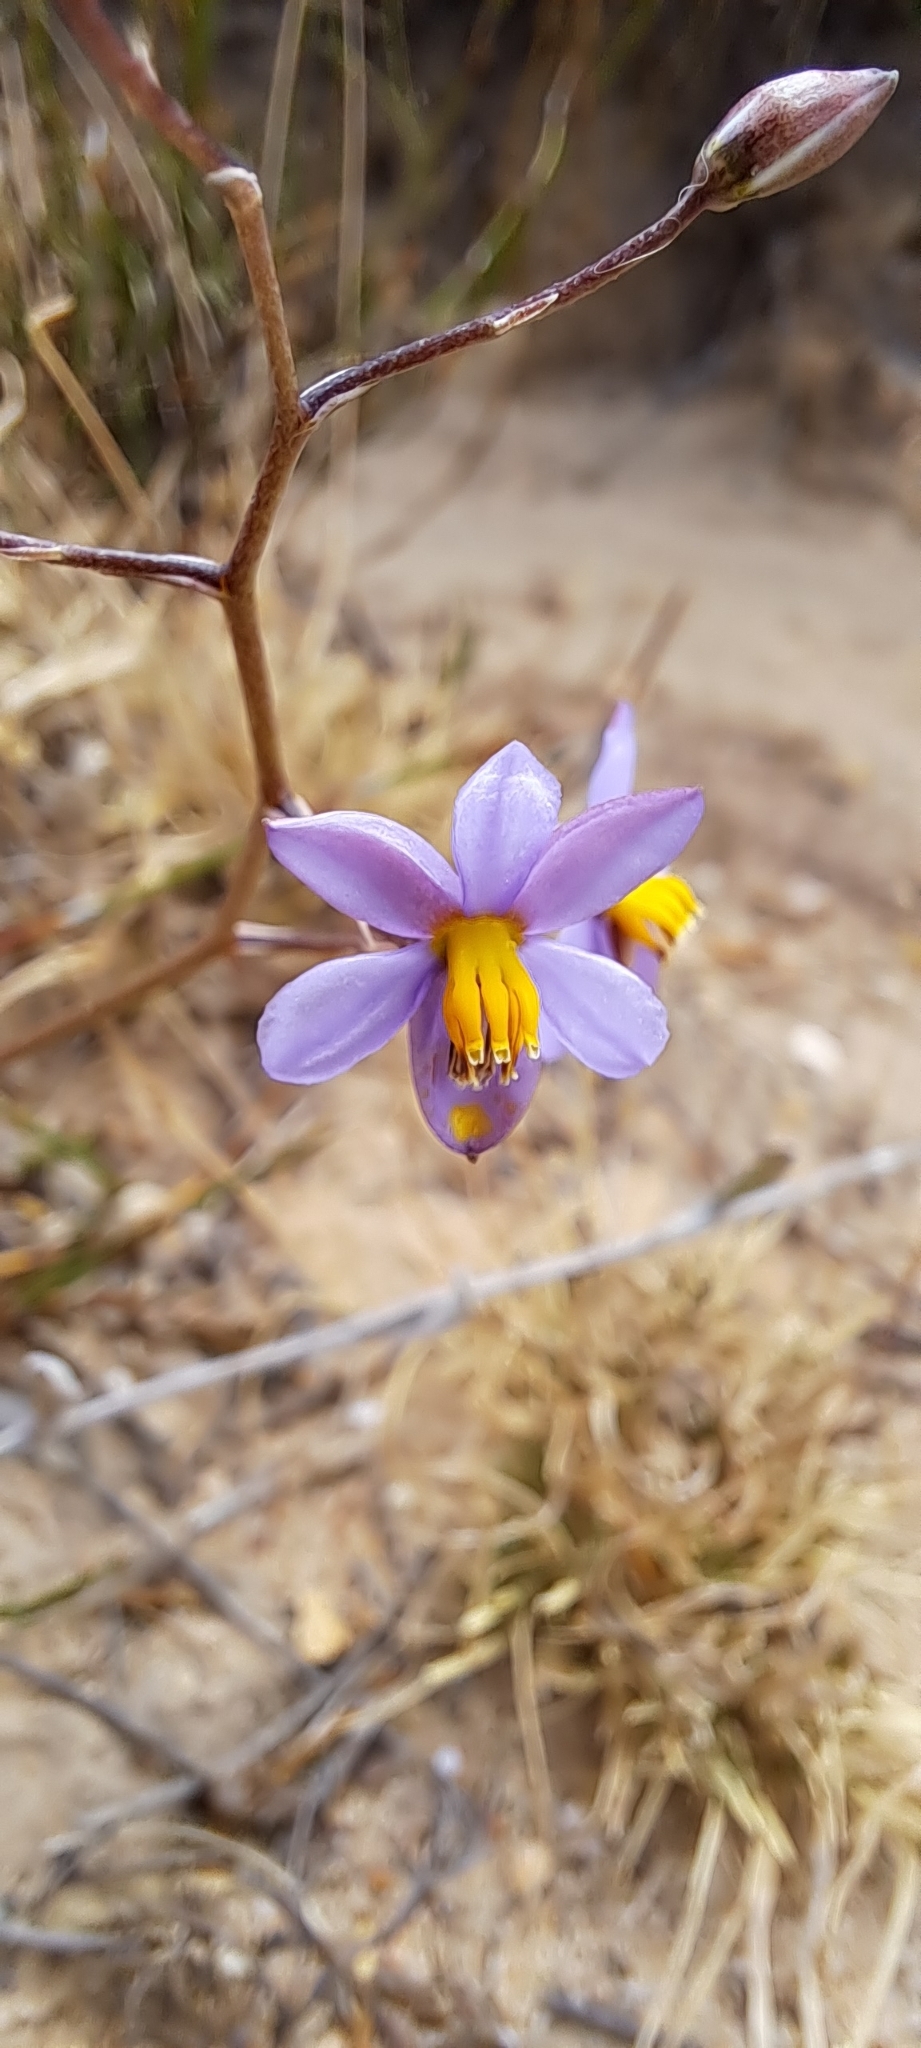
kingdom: Plantae
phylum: Tracheophyta
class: Liliopsida
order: Asparagales
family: Tecophilaeaceae
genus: Cyanella
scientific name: Cyanella hyacinthoides
